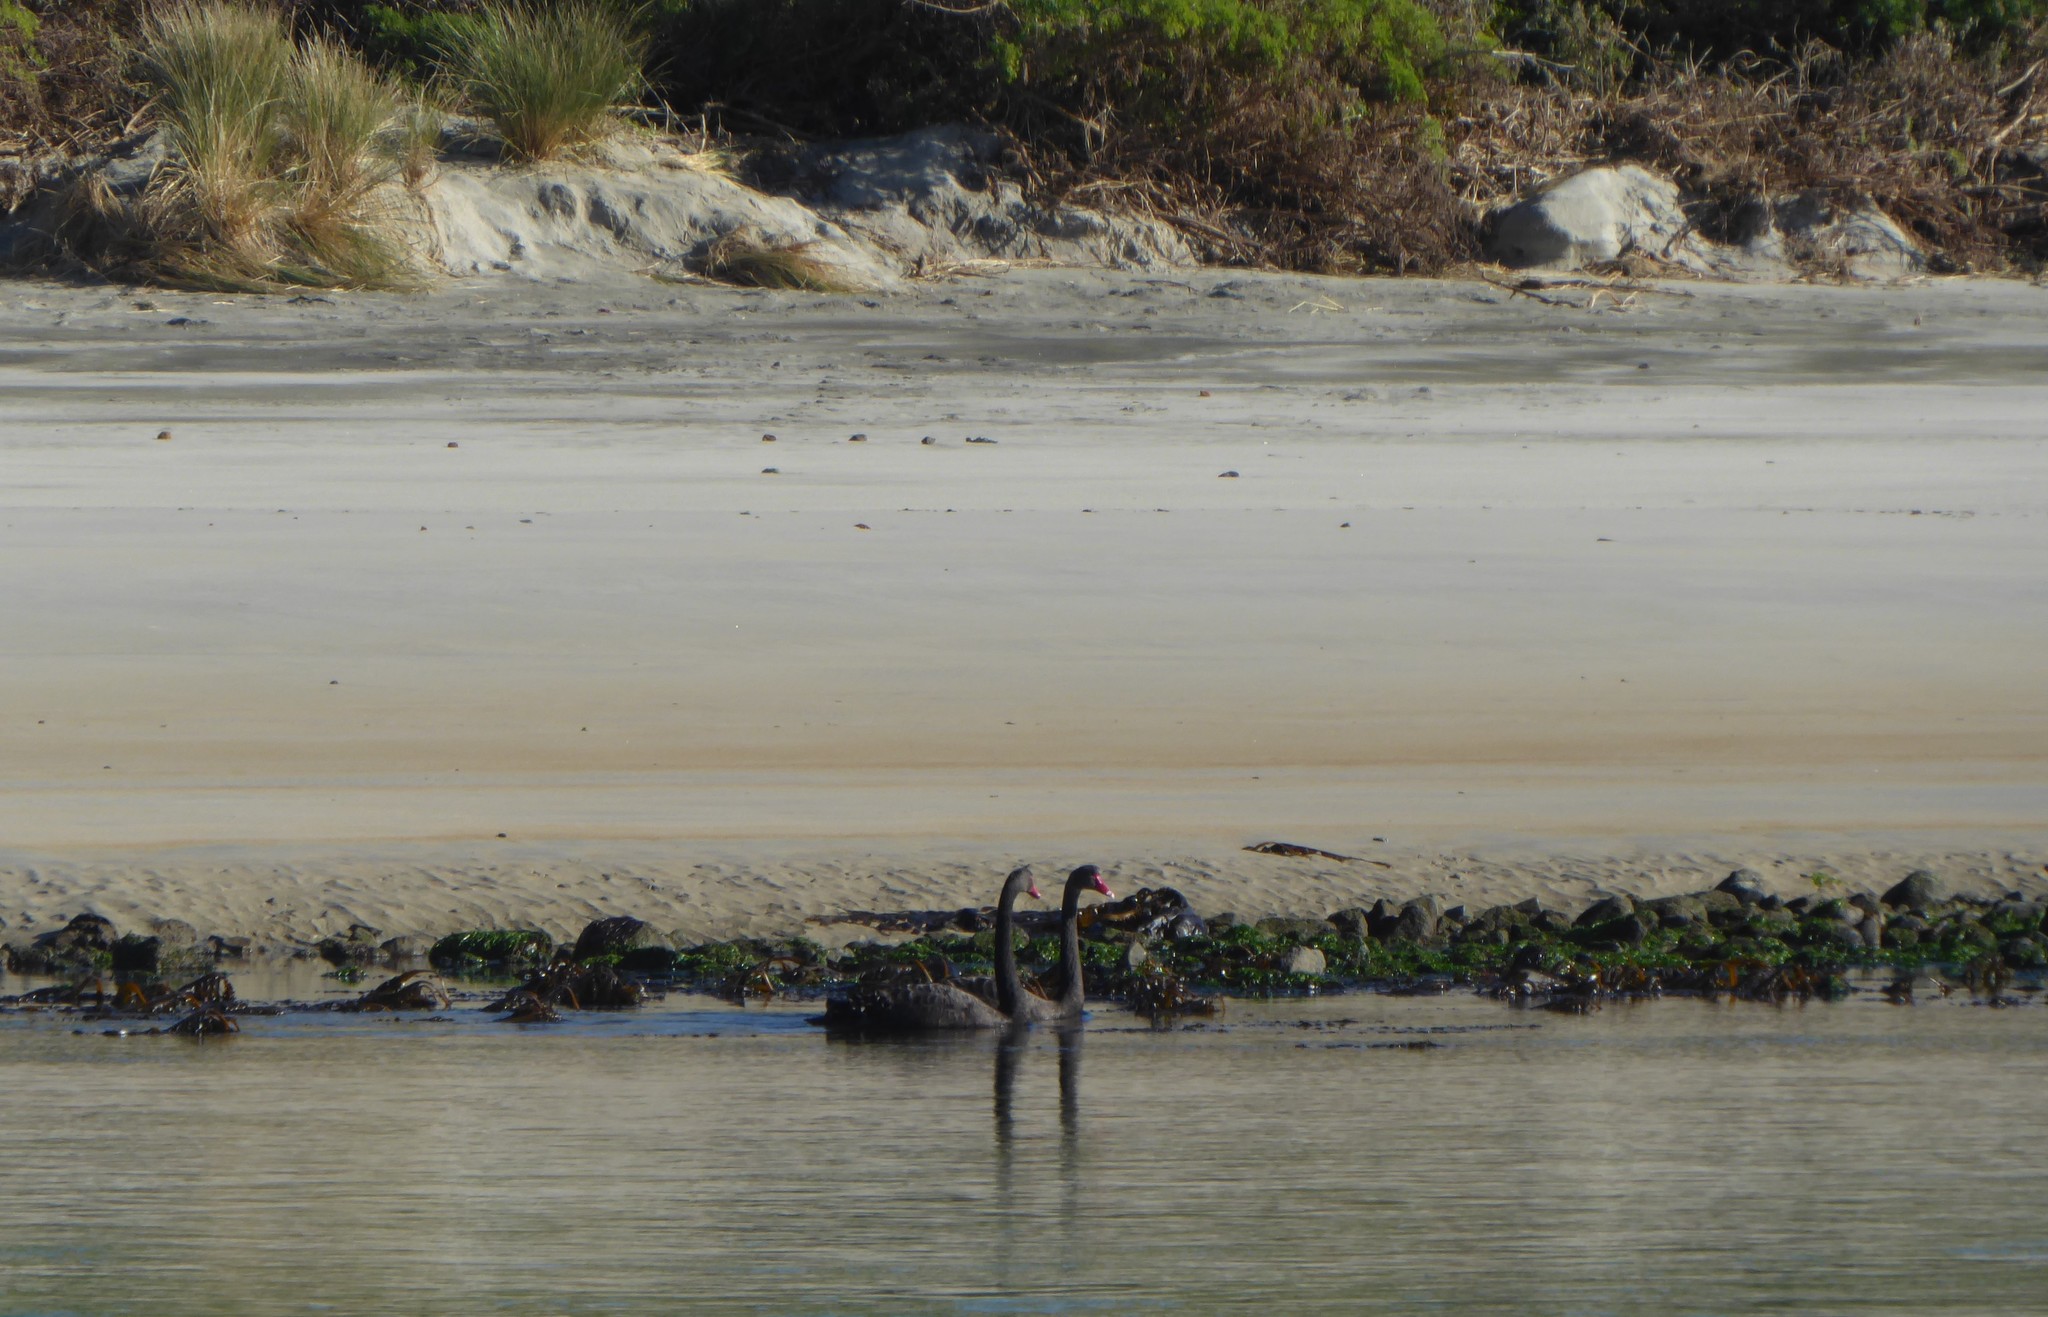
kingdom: Animalia
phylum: Chordata
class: Aves
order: Anseriformes
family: Anatidae
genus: Cygnus
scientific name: Cygnus atratus
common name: Black swan
